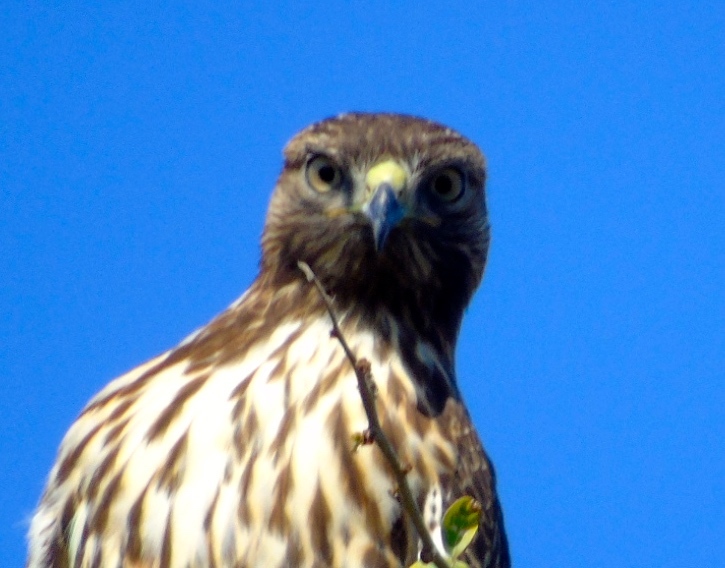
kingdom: Animalia
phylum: Chordata
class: Aves
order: Accipitriformes
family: Accipitridae
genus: Buteo
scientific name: Buteo jamaicensis
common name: Red-tailed hawk
